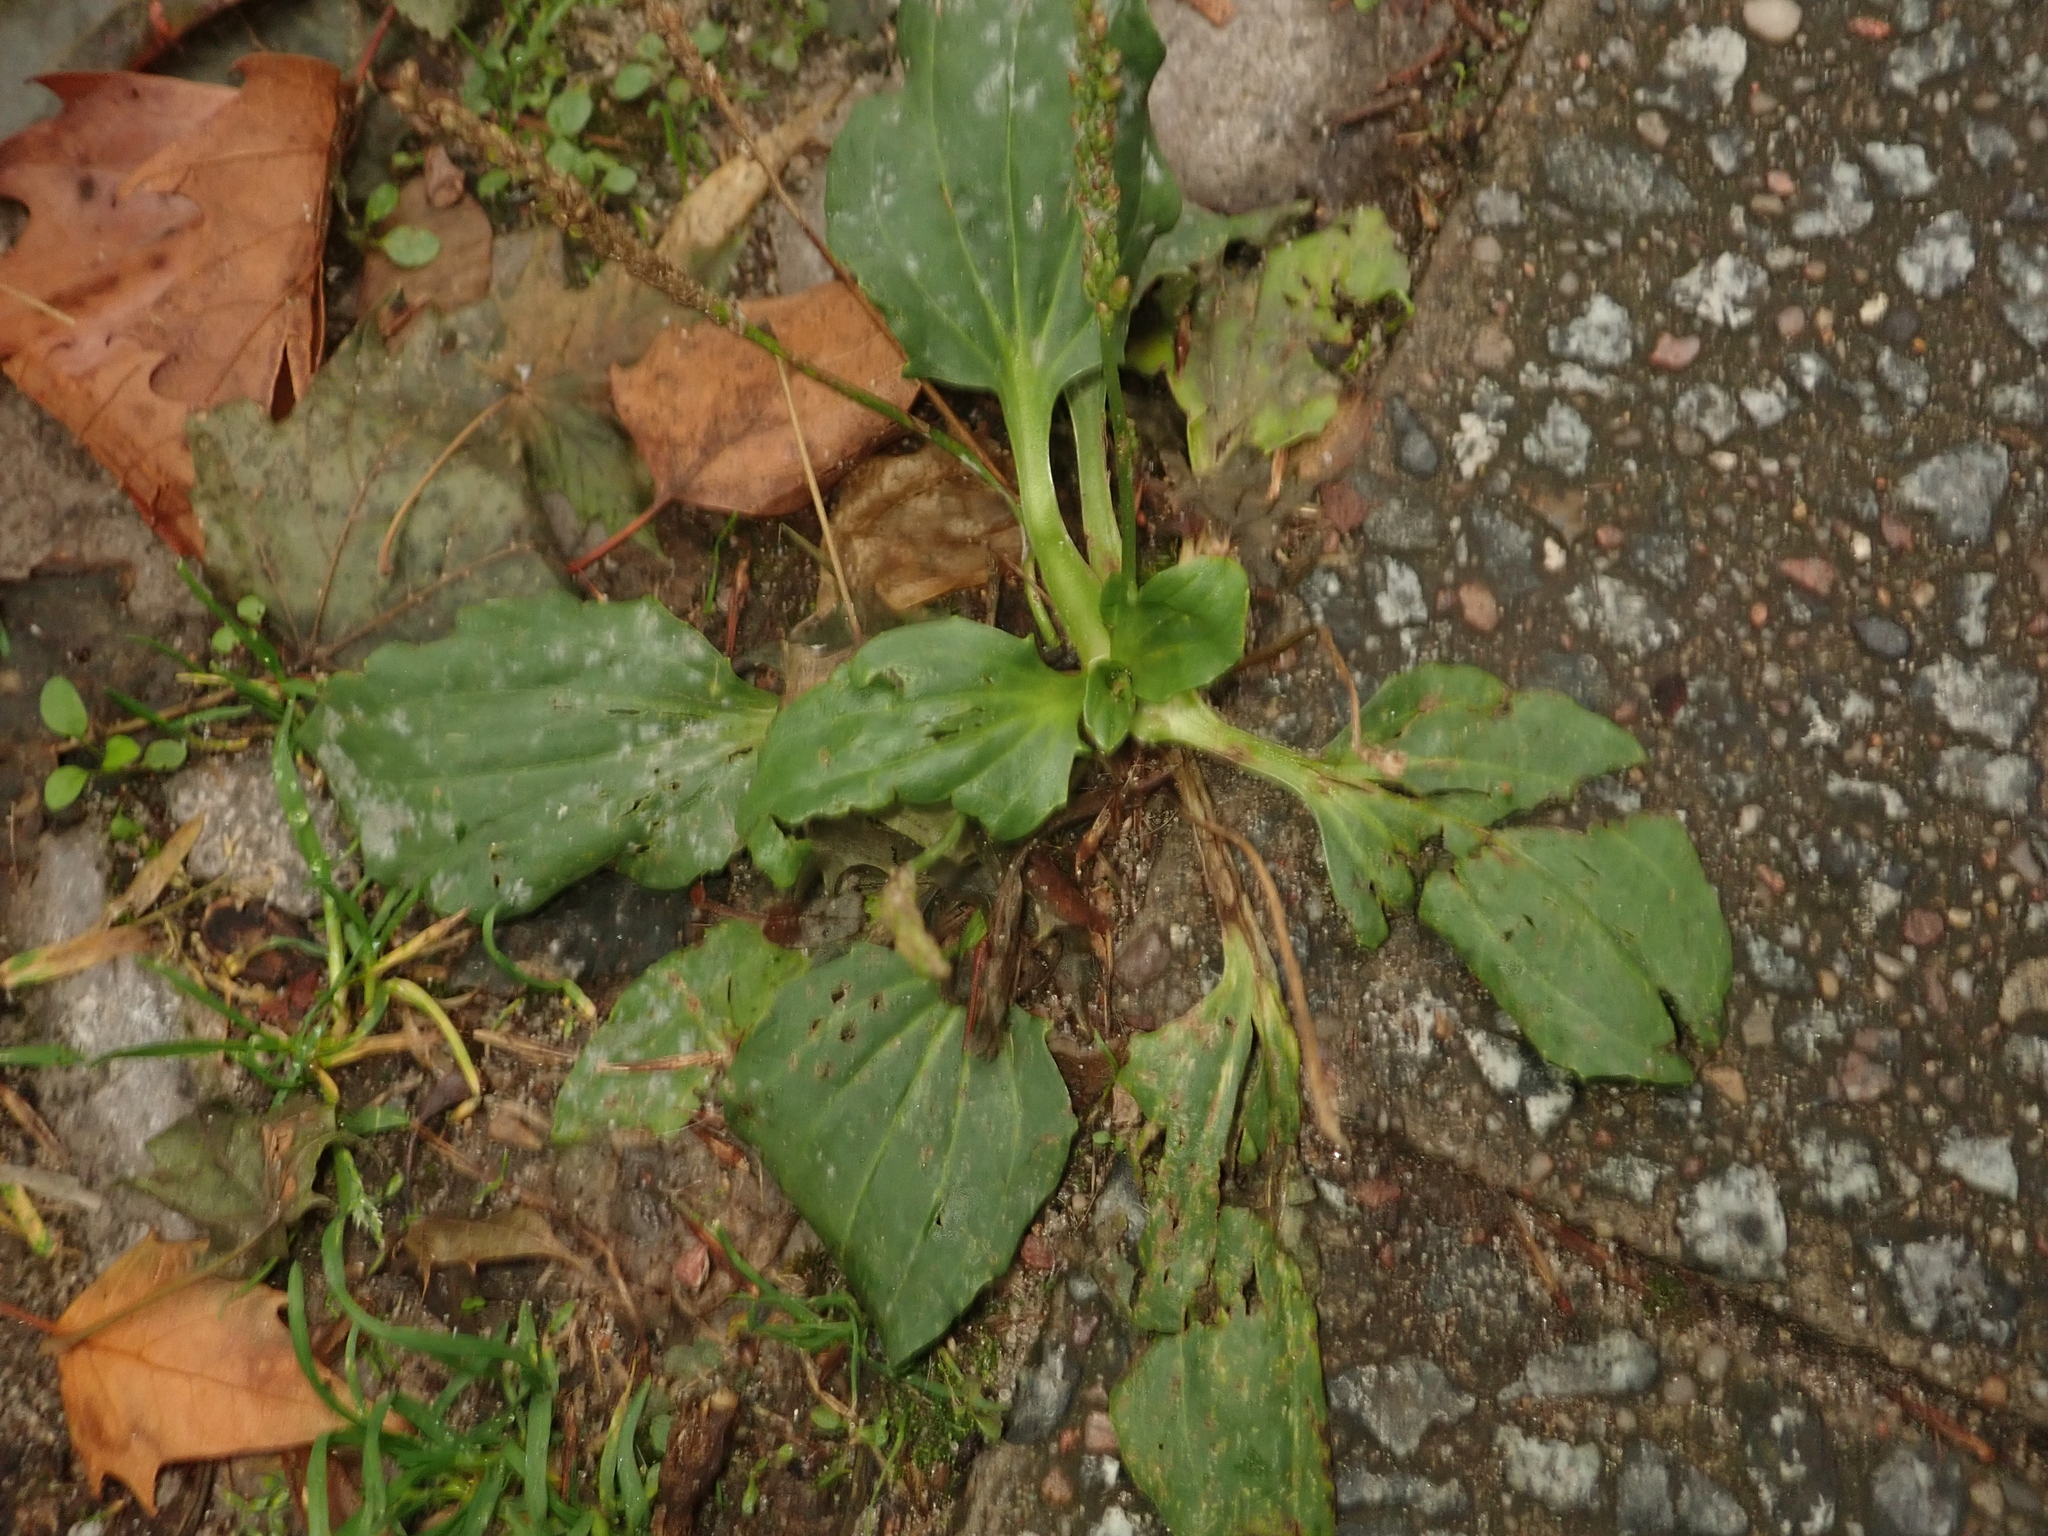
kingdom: Plantae
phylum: Tracheophyta
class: Magnoliopsida
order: Lamiales
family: Plantaginaceae
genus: Plantago
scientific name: Plantago major
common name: Common plantain
